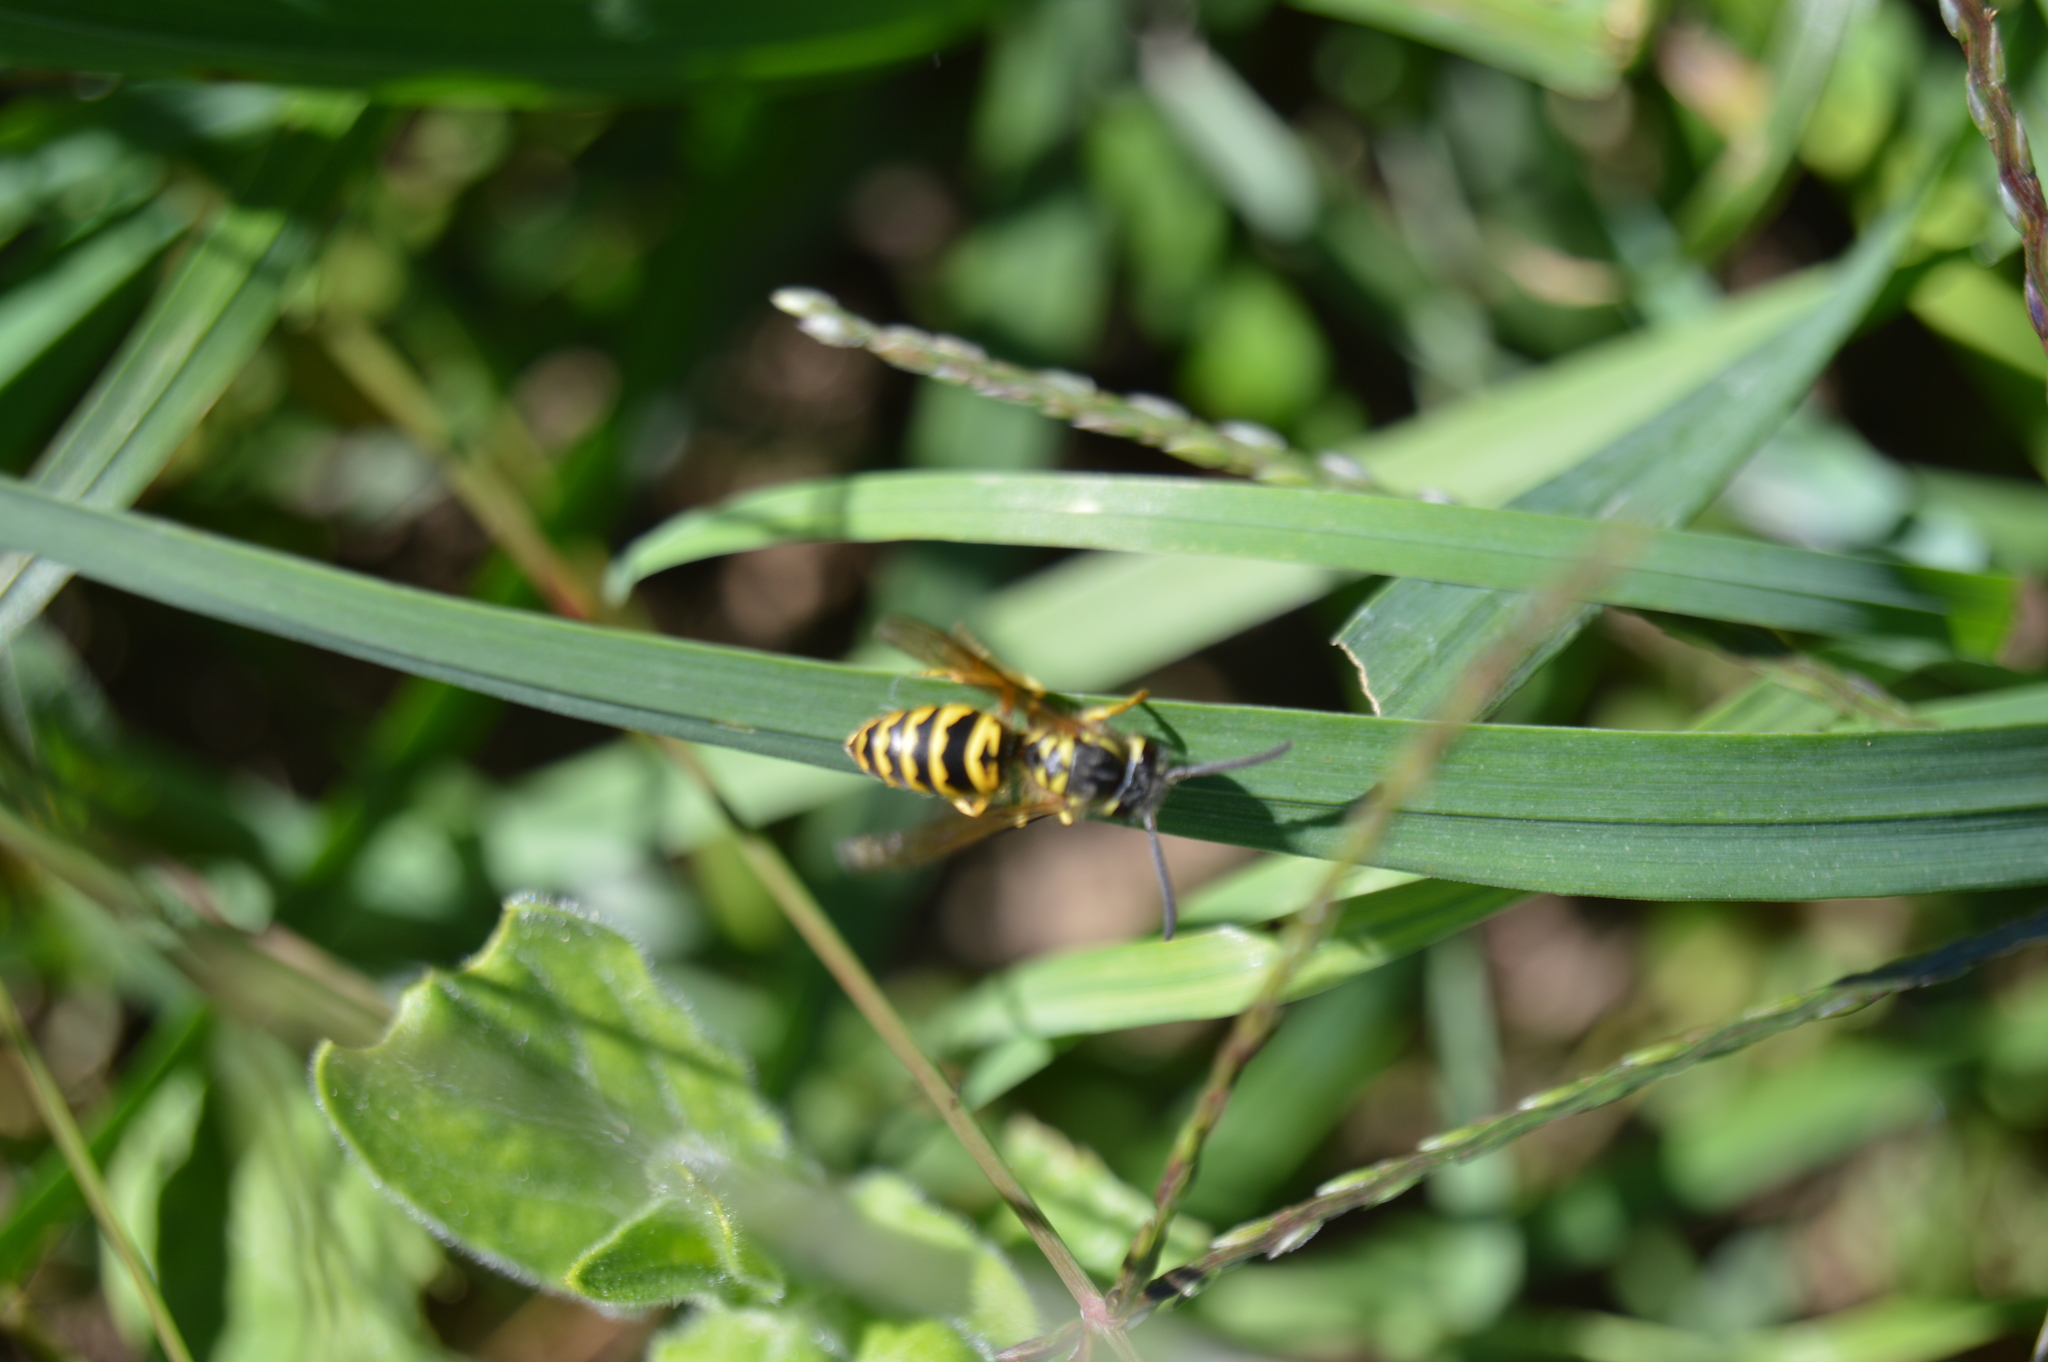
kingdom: Animalia
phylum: Arthropoda
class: Insecta
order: Hymenoptera
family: Vespidae
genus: Vespula
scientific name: Vespula maculifrons
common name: Eastern yellowjacket
